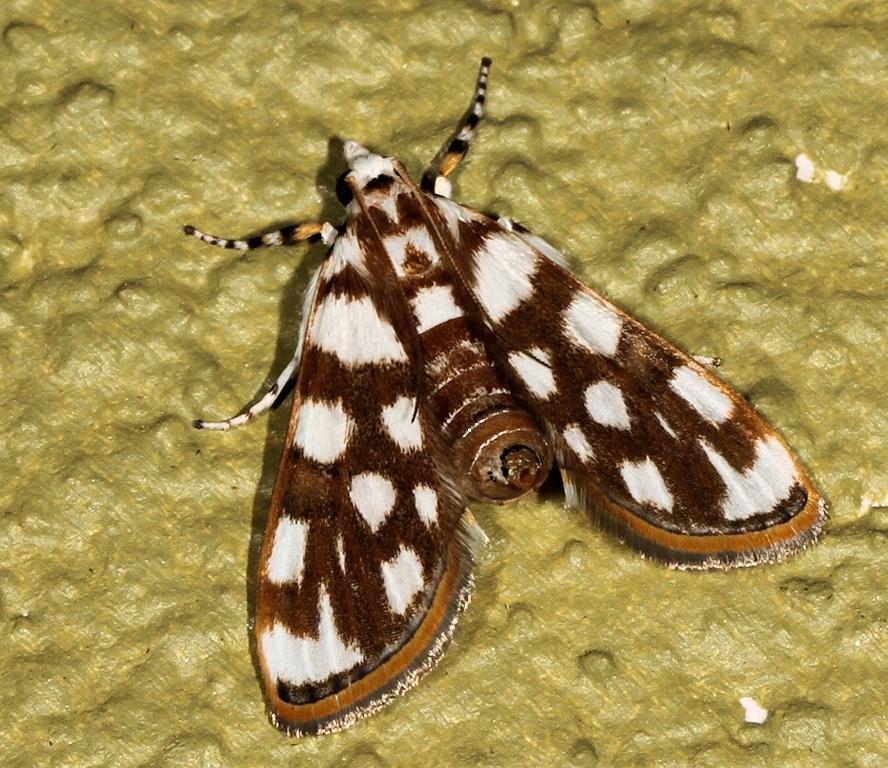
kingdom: Animalia
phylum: Arthropoda
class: Insecta
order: Lepidoptera
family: Crambidae
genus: Obtusipalpis
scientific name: Obtusipalpis pardalis
